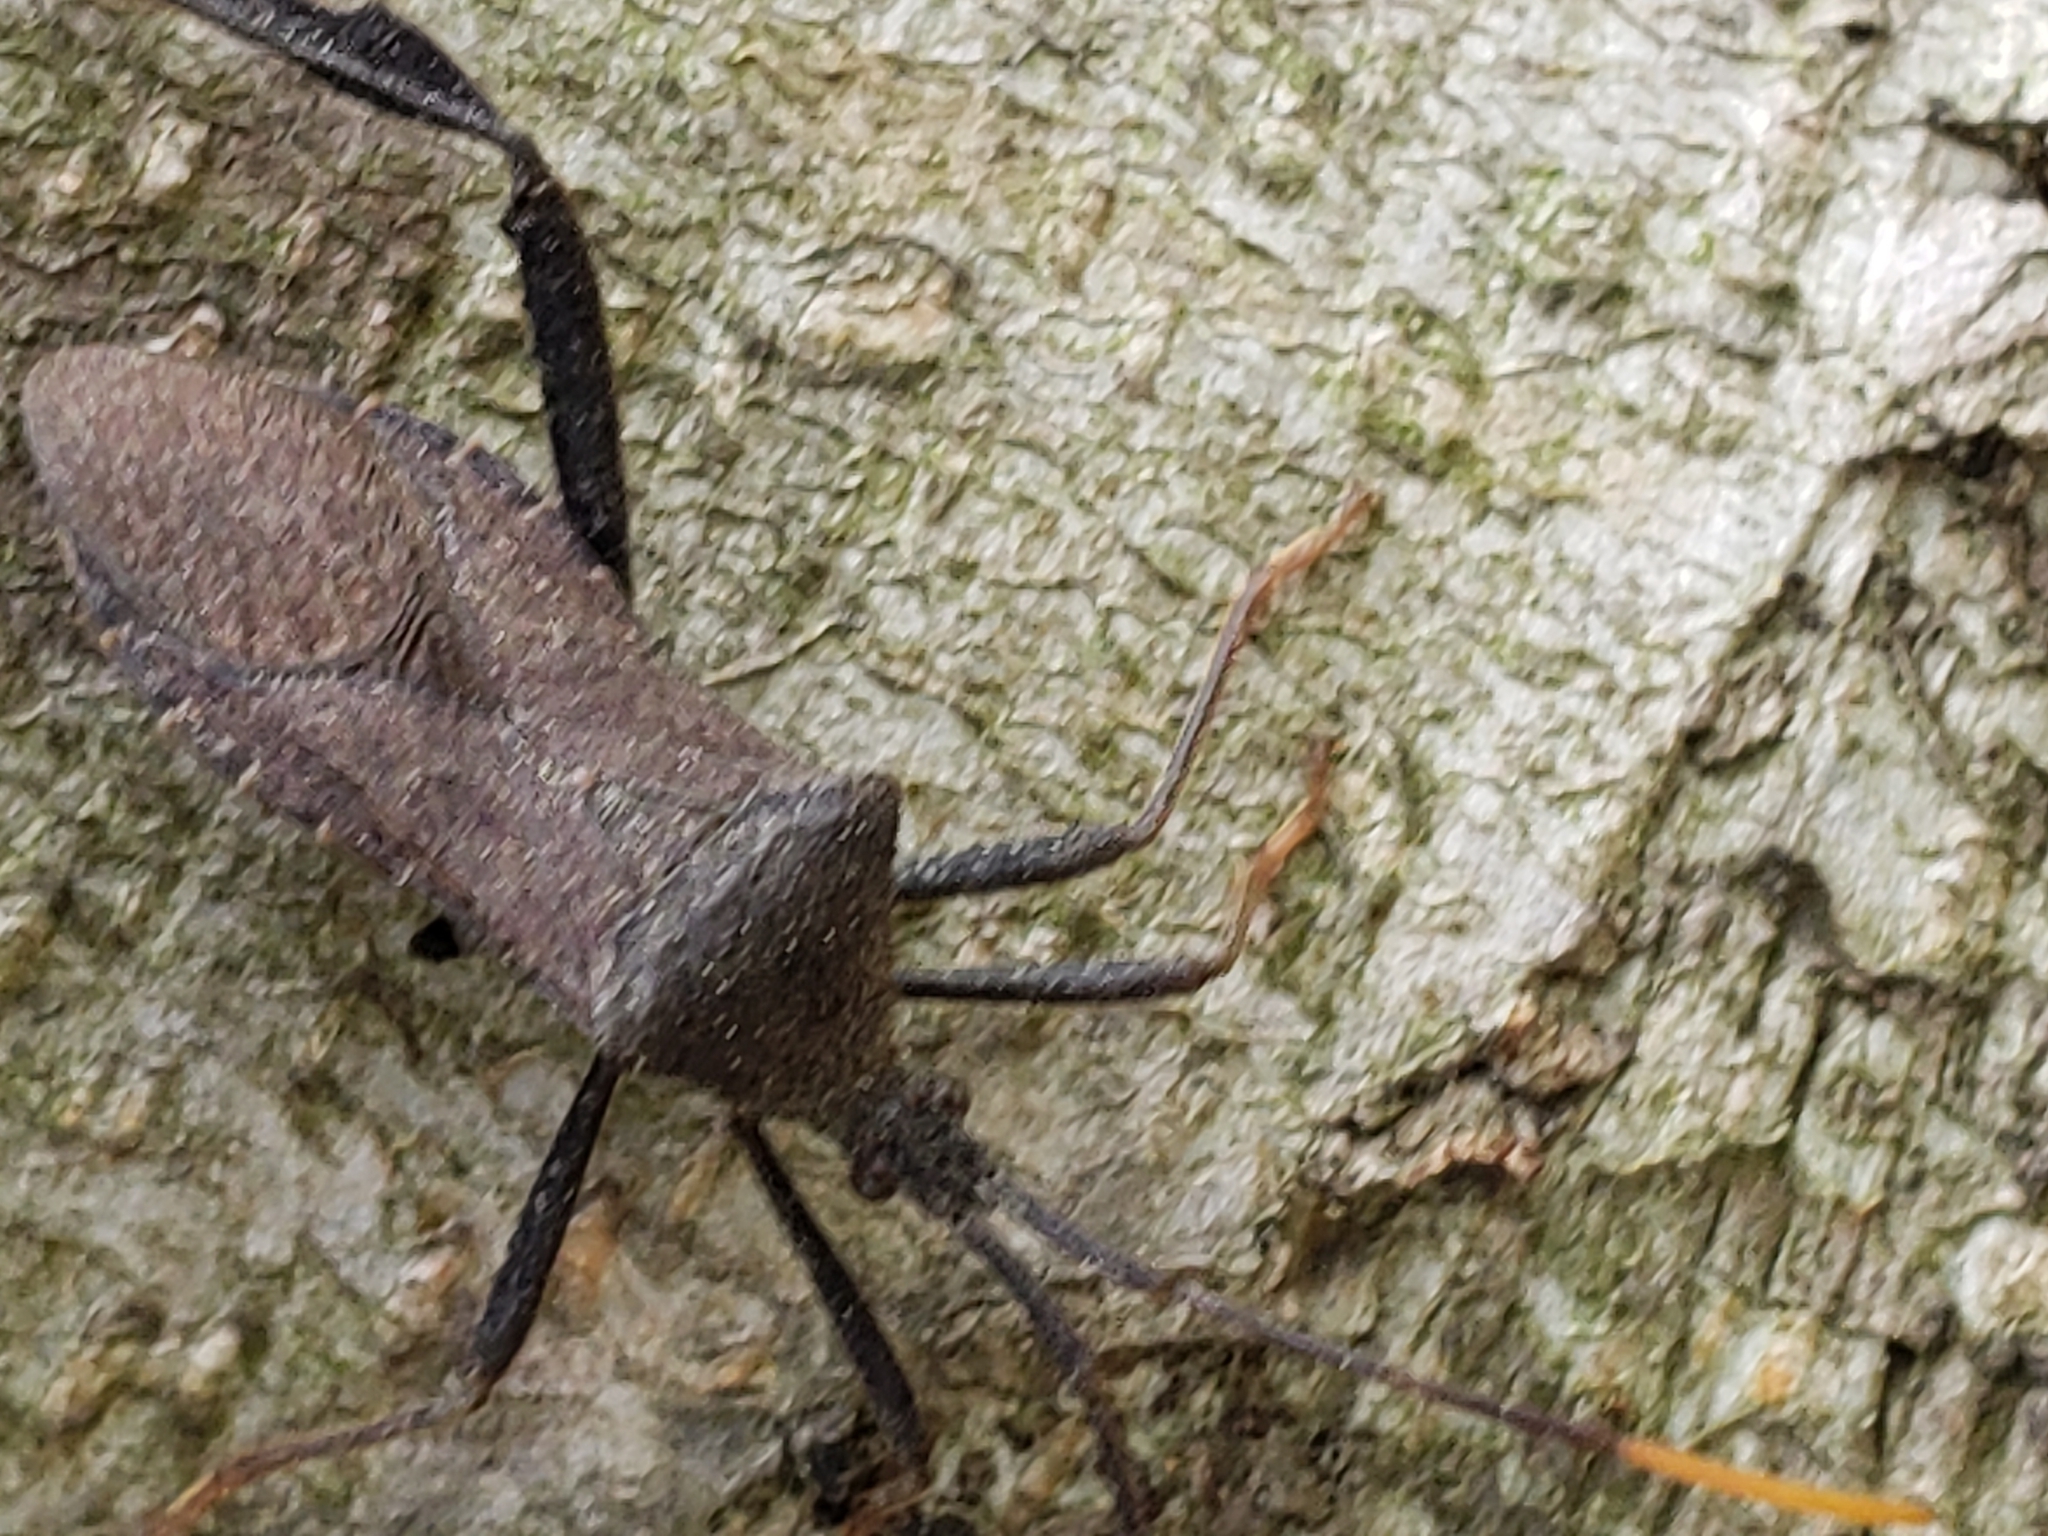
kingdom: Animalia
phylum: Arthropoda
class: Insecta
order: Hemiptera
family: Coreidae
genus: Acanthocephala
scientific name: Acanthocephala terminalis
